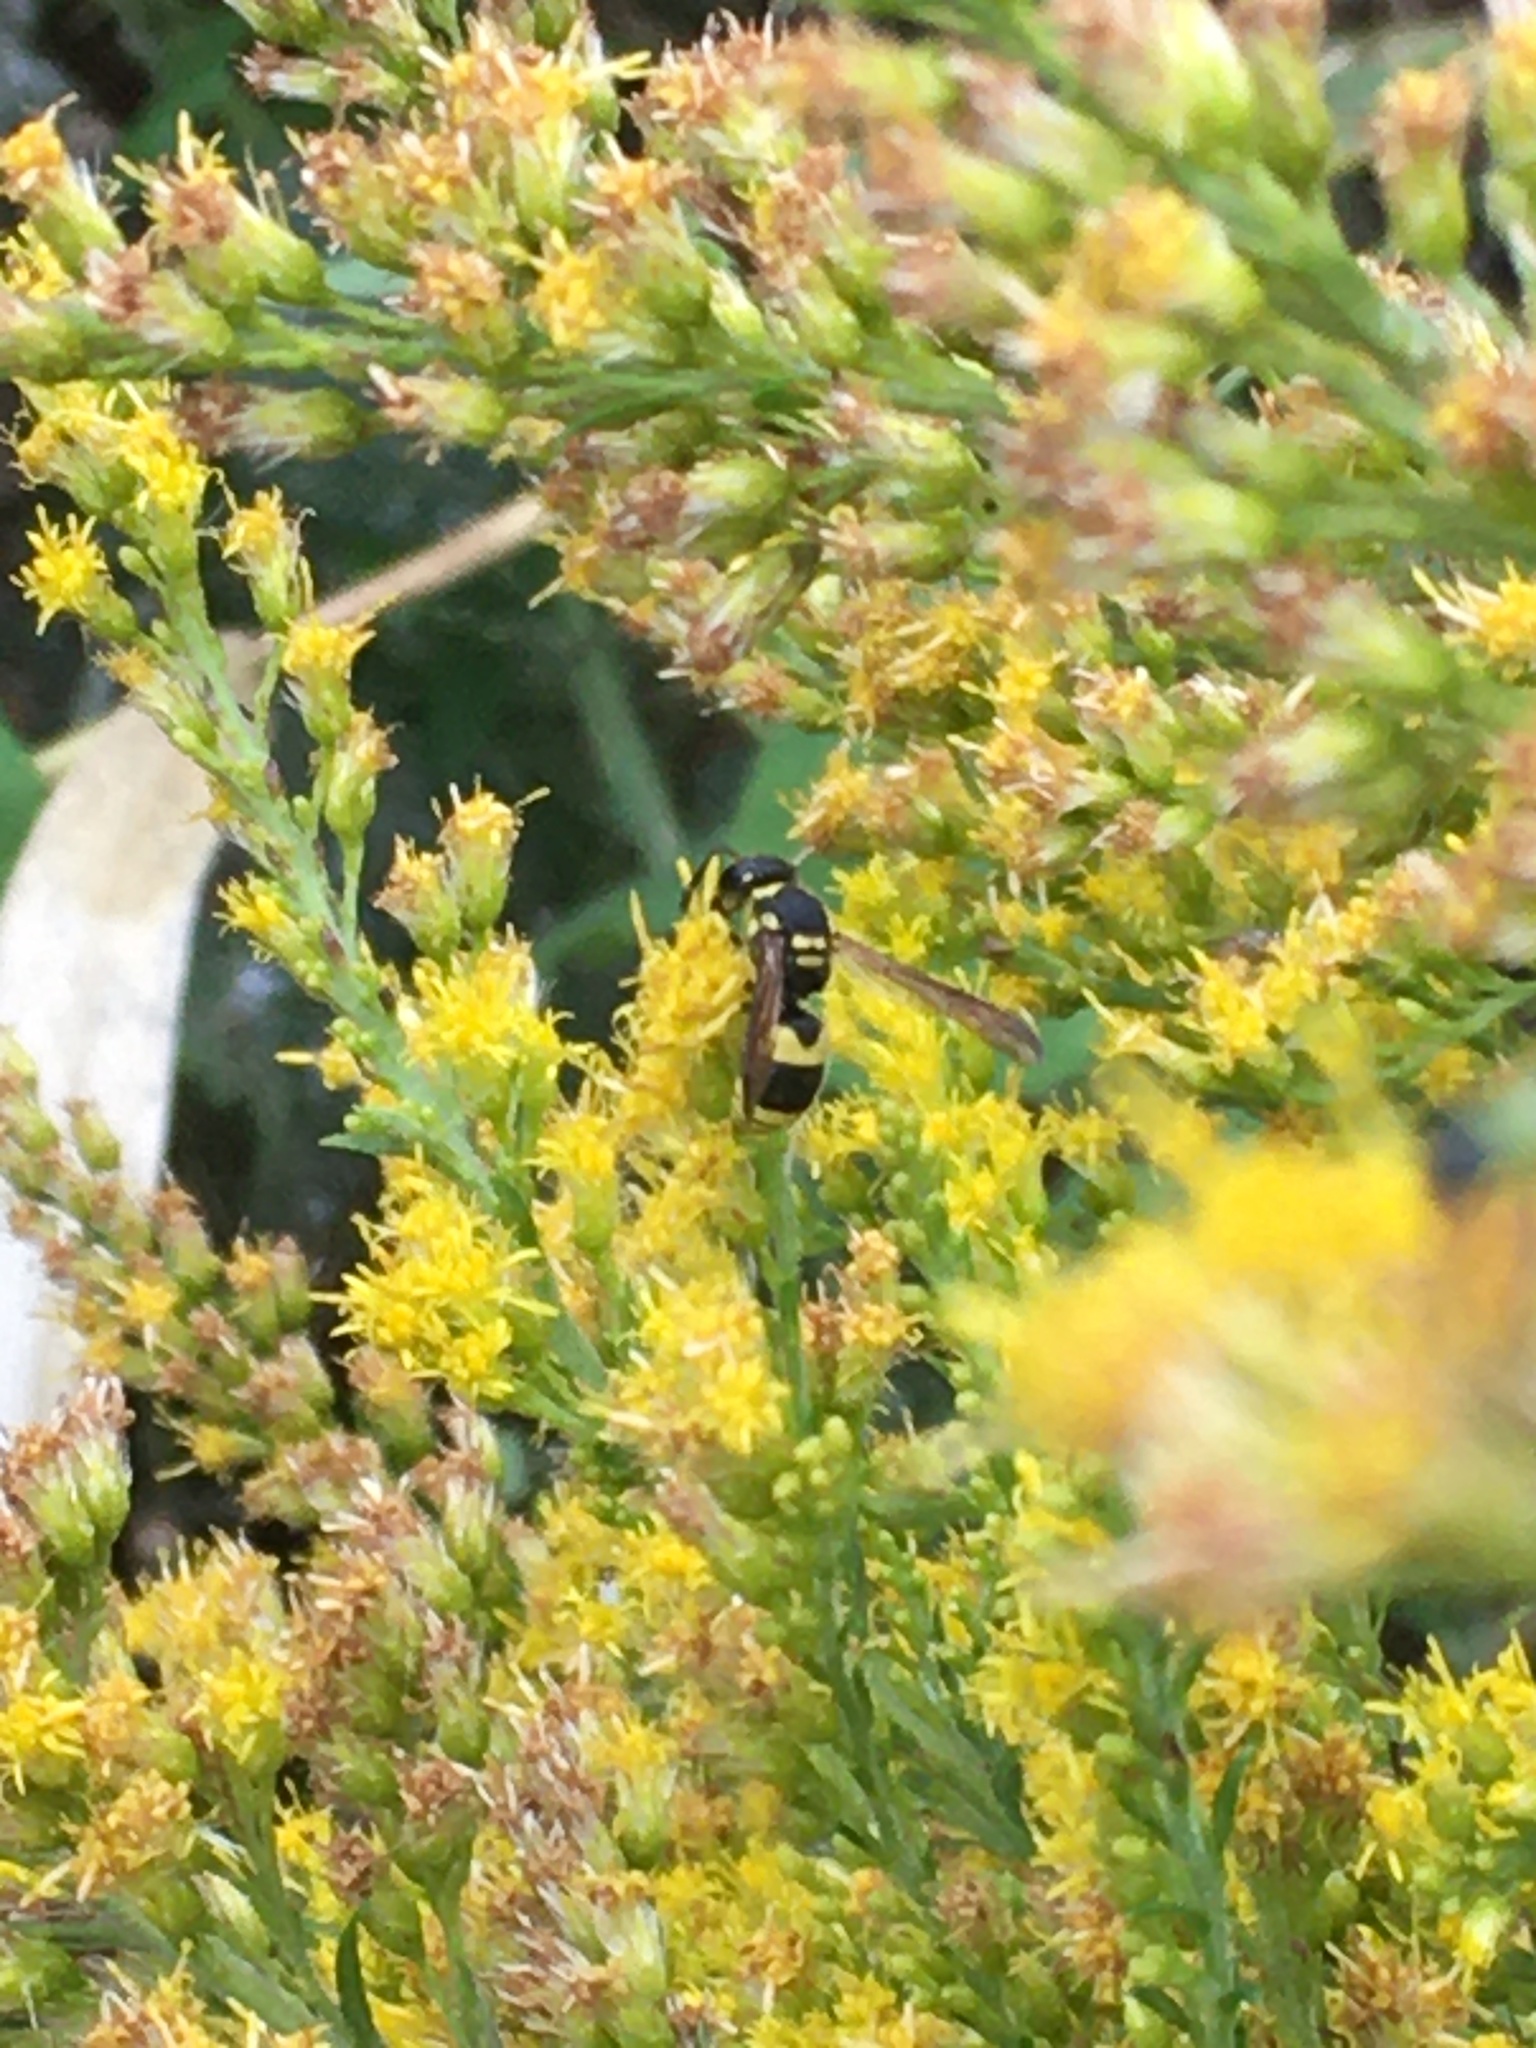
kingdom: Animalia
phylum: Arthropoda
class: Insecta
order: Hymenoptera
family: Vespidae
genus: Ancistrocerus
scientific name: Ancistrocerus gazella
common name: European tube wasp
